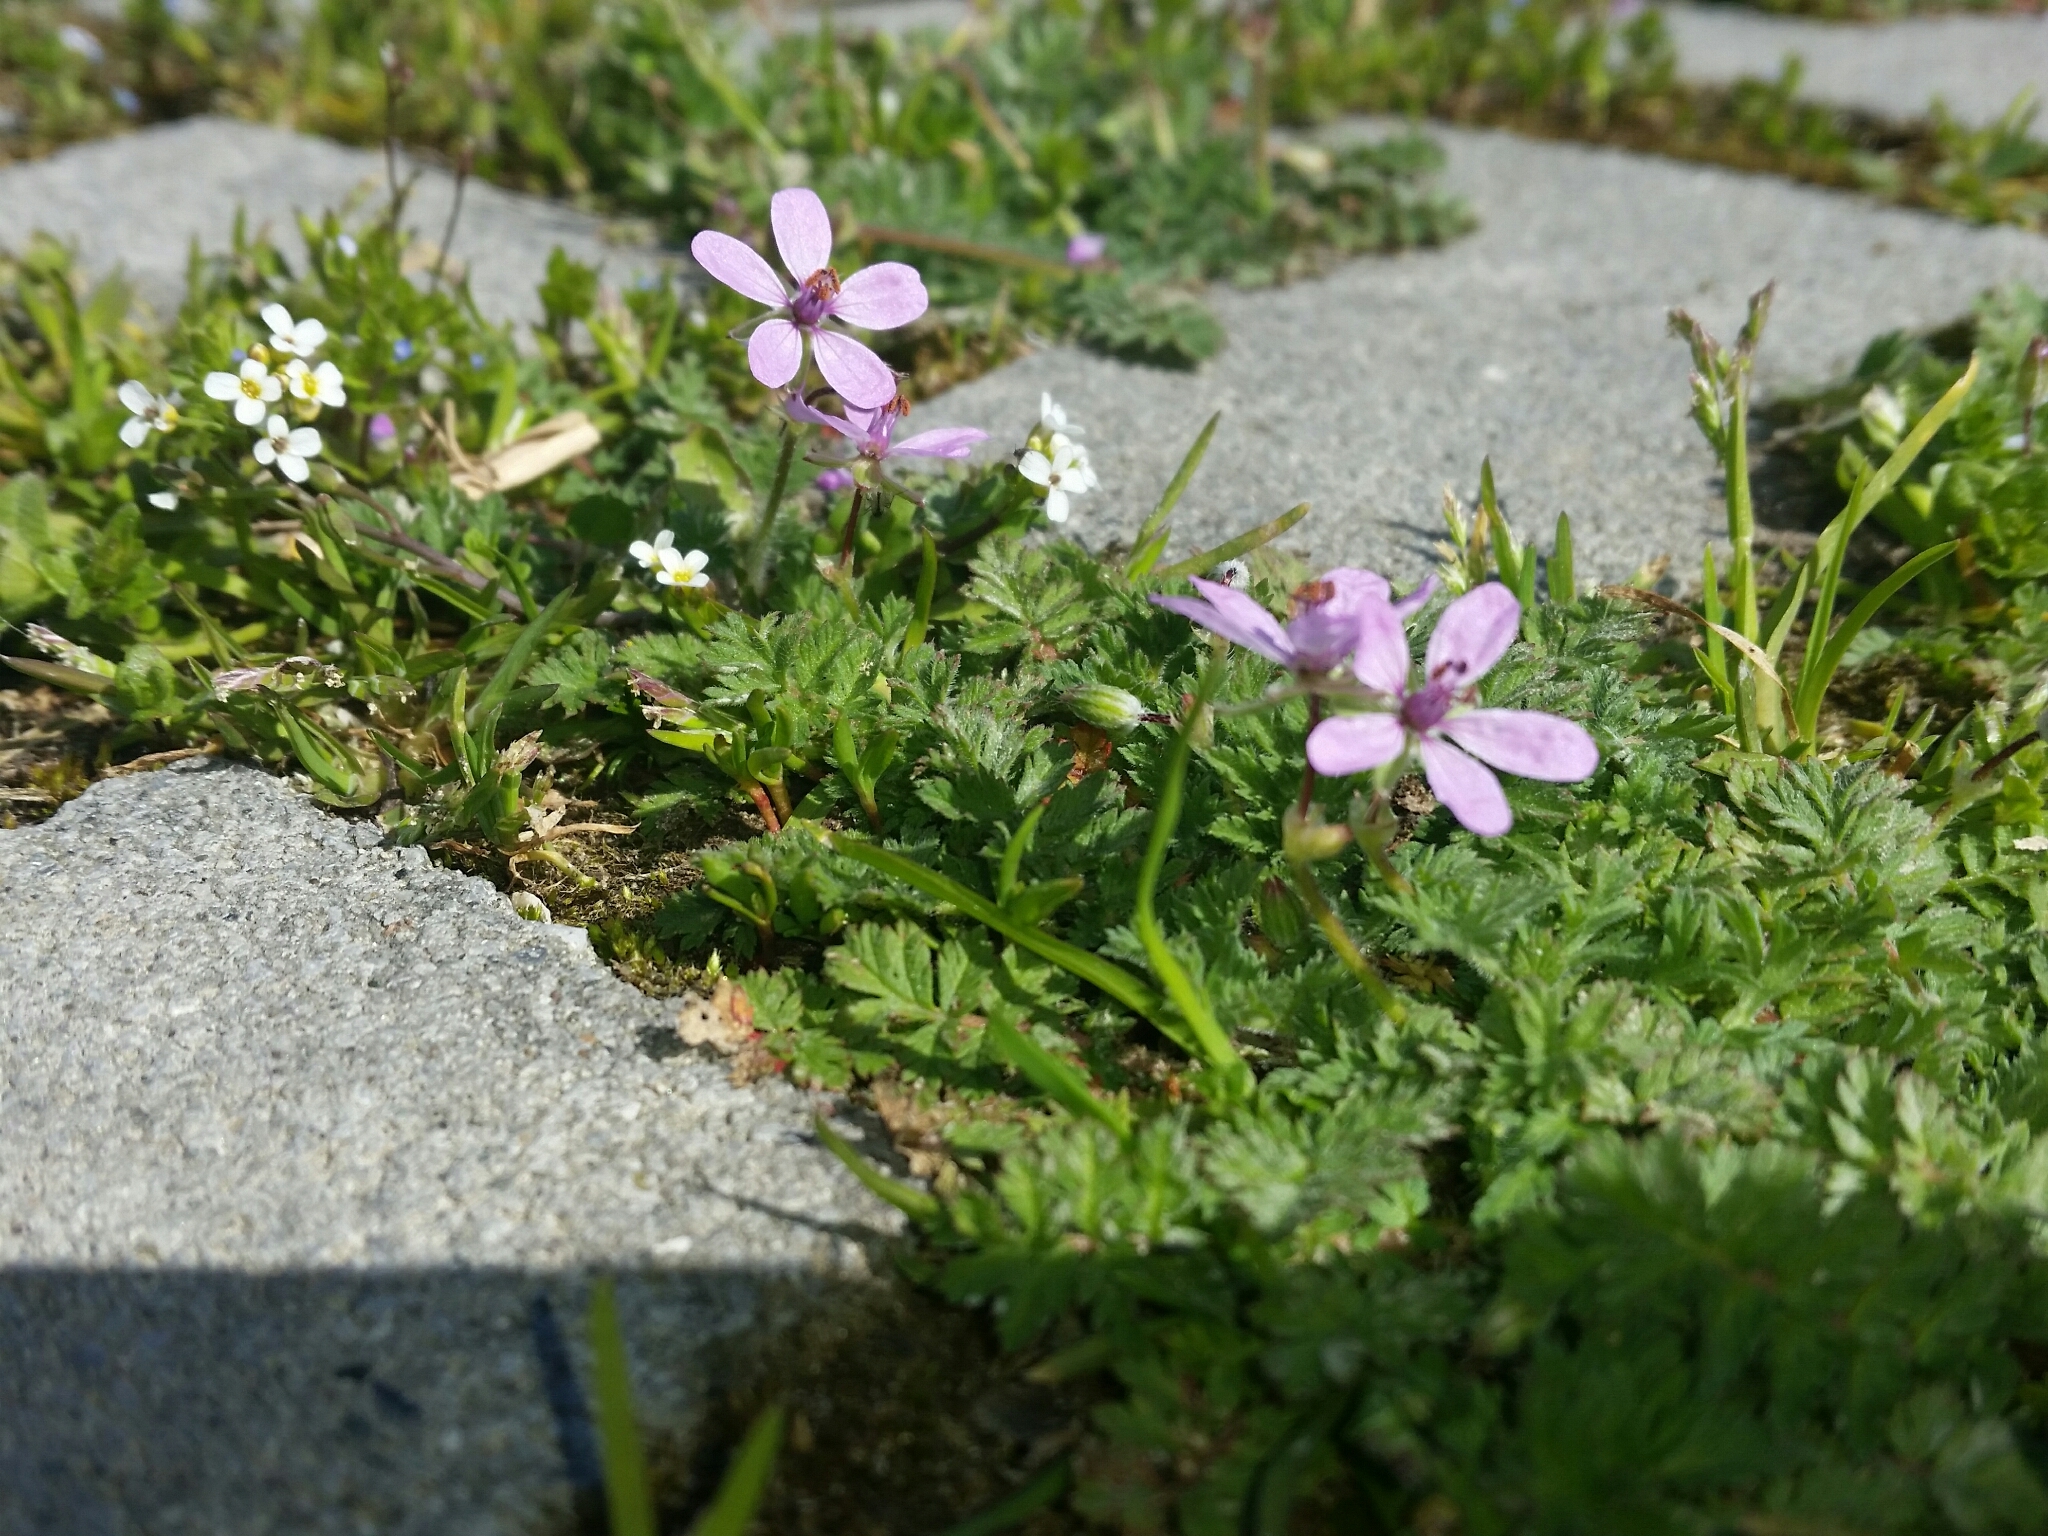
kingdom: Plantae
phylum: Tracheophyta
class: Magnoliopsida
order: Geraniales
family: Geraniaceae
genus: Erodium
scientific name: Erodium cicutarium
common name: Common stork's-bill
